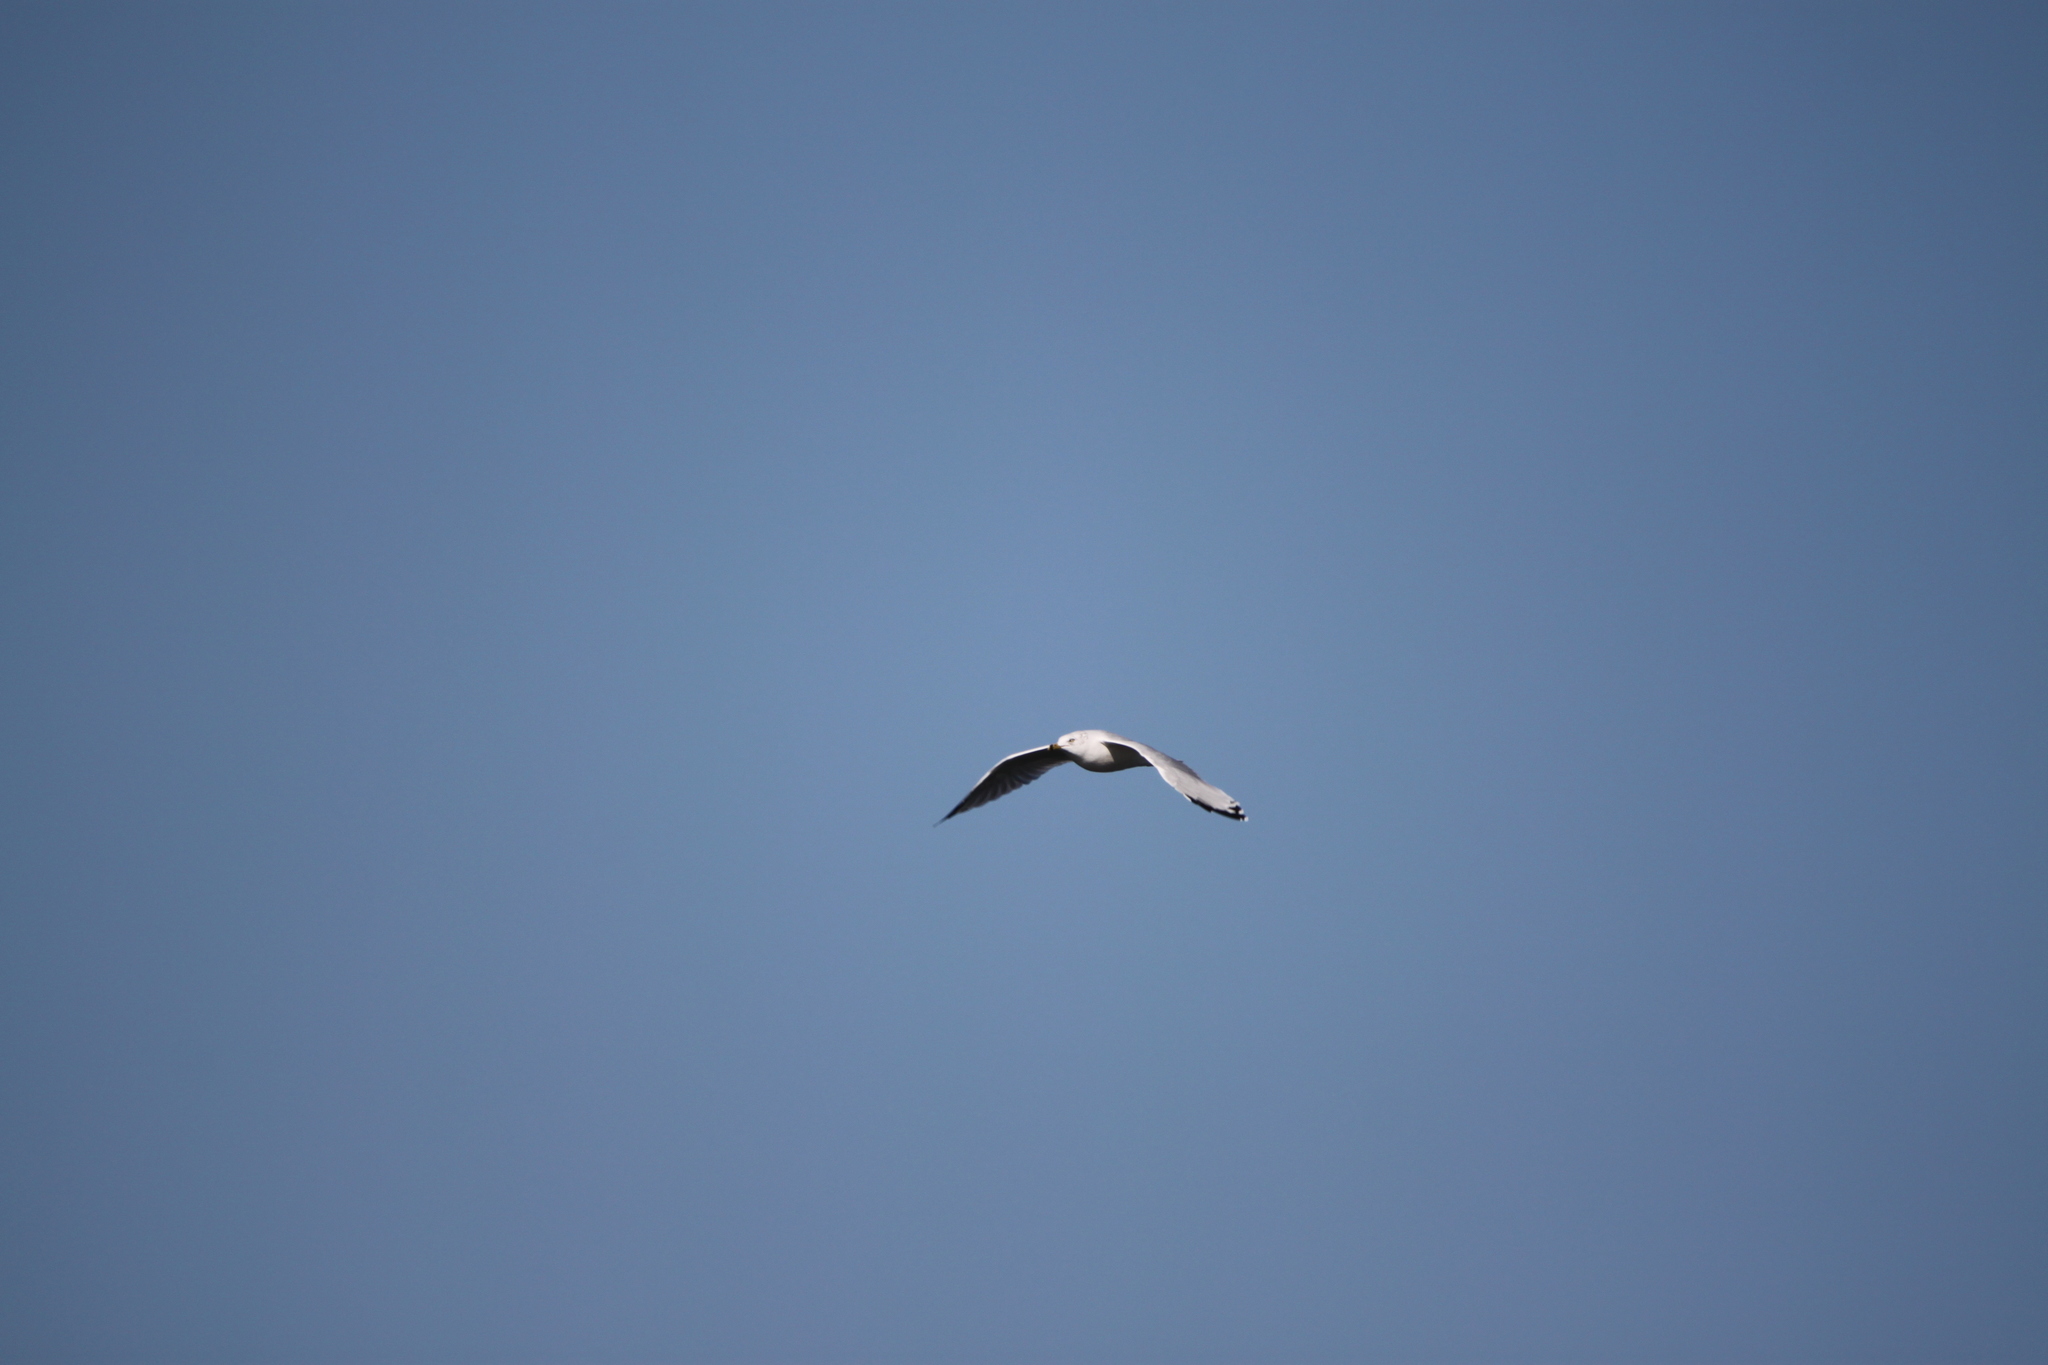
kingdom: Animalia
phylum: Chordata
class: Aves
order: Charadriiformes
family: Laridae
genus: Larus
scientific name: Larus delawarensis
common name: Ring-billed gull
